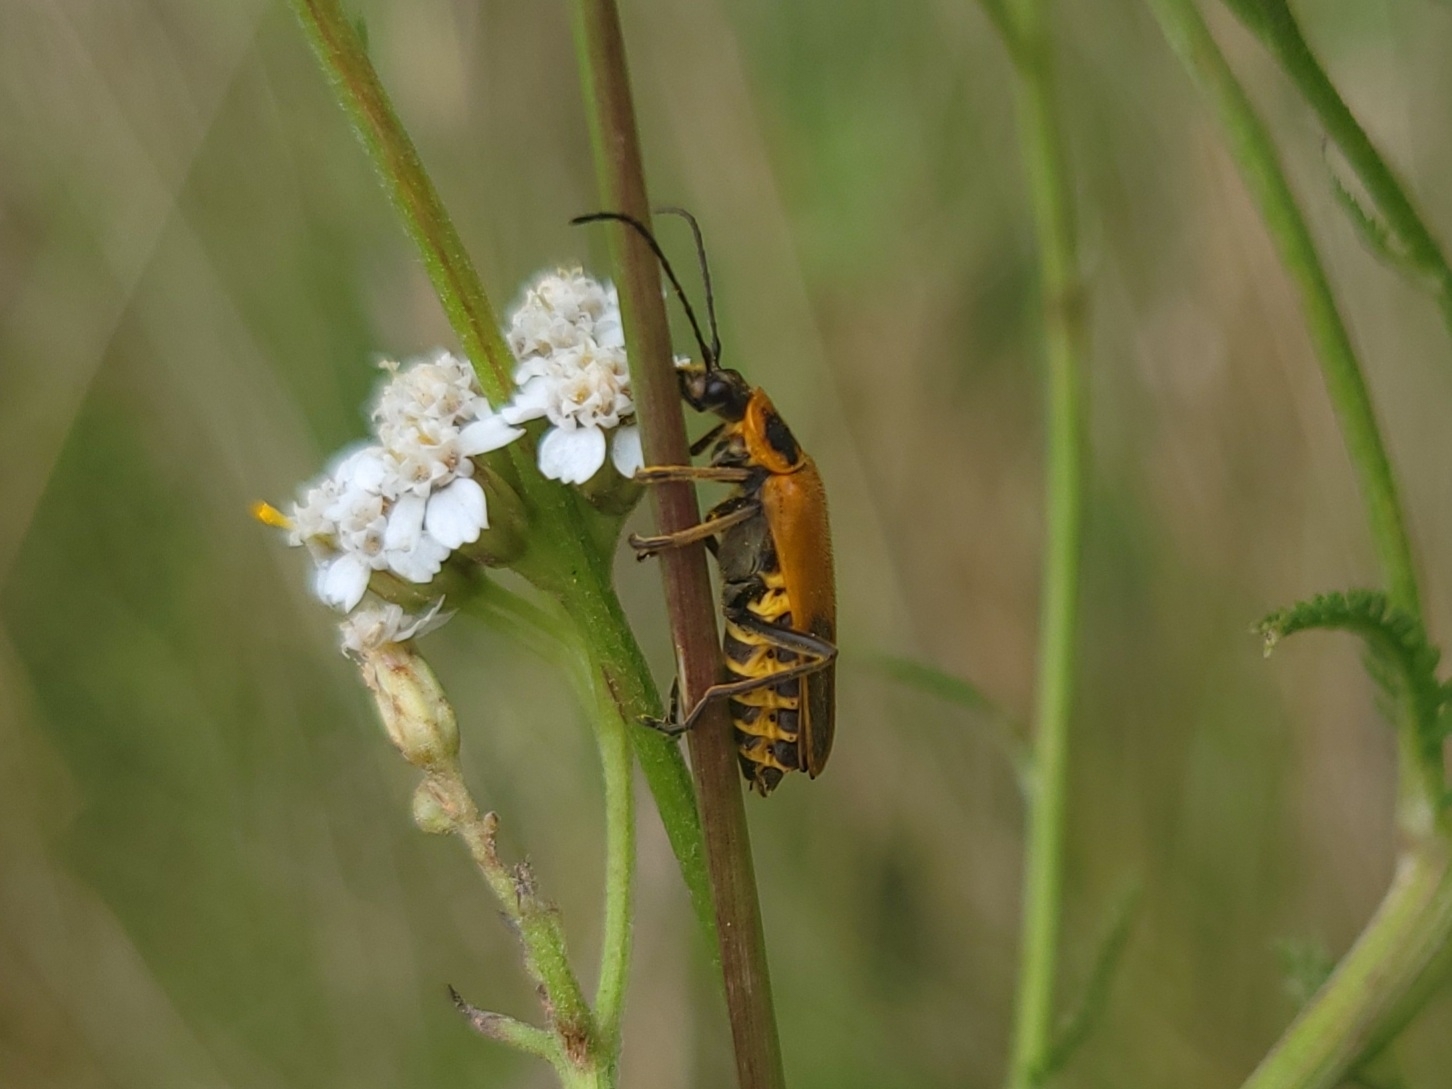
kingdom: Animalia
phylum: Arthropoda
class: Insecta
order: Coleoptera
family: Cantharidae
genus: Chauliognathus
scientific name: Chauliognathus pensylvanicus
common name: Goldenrod soldier beetle
